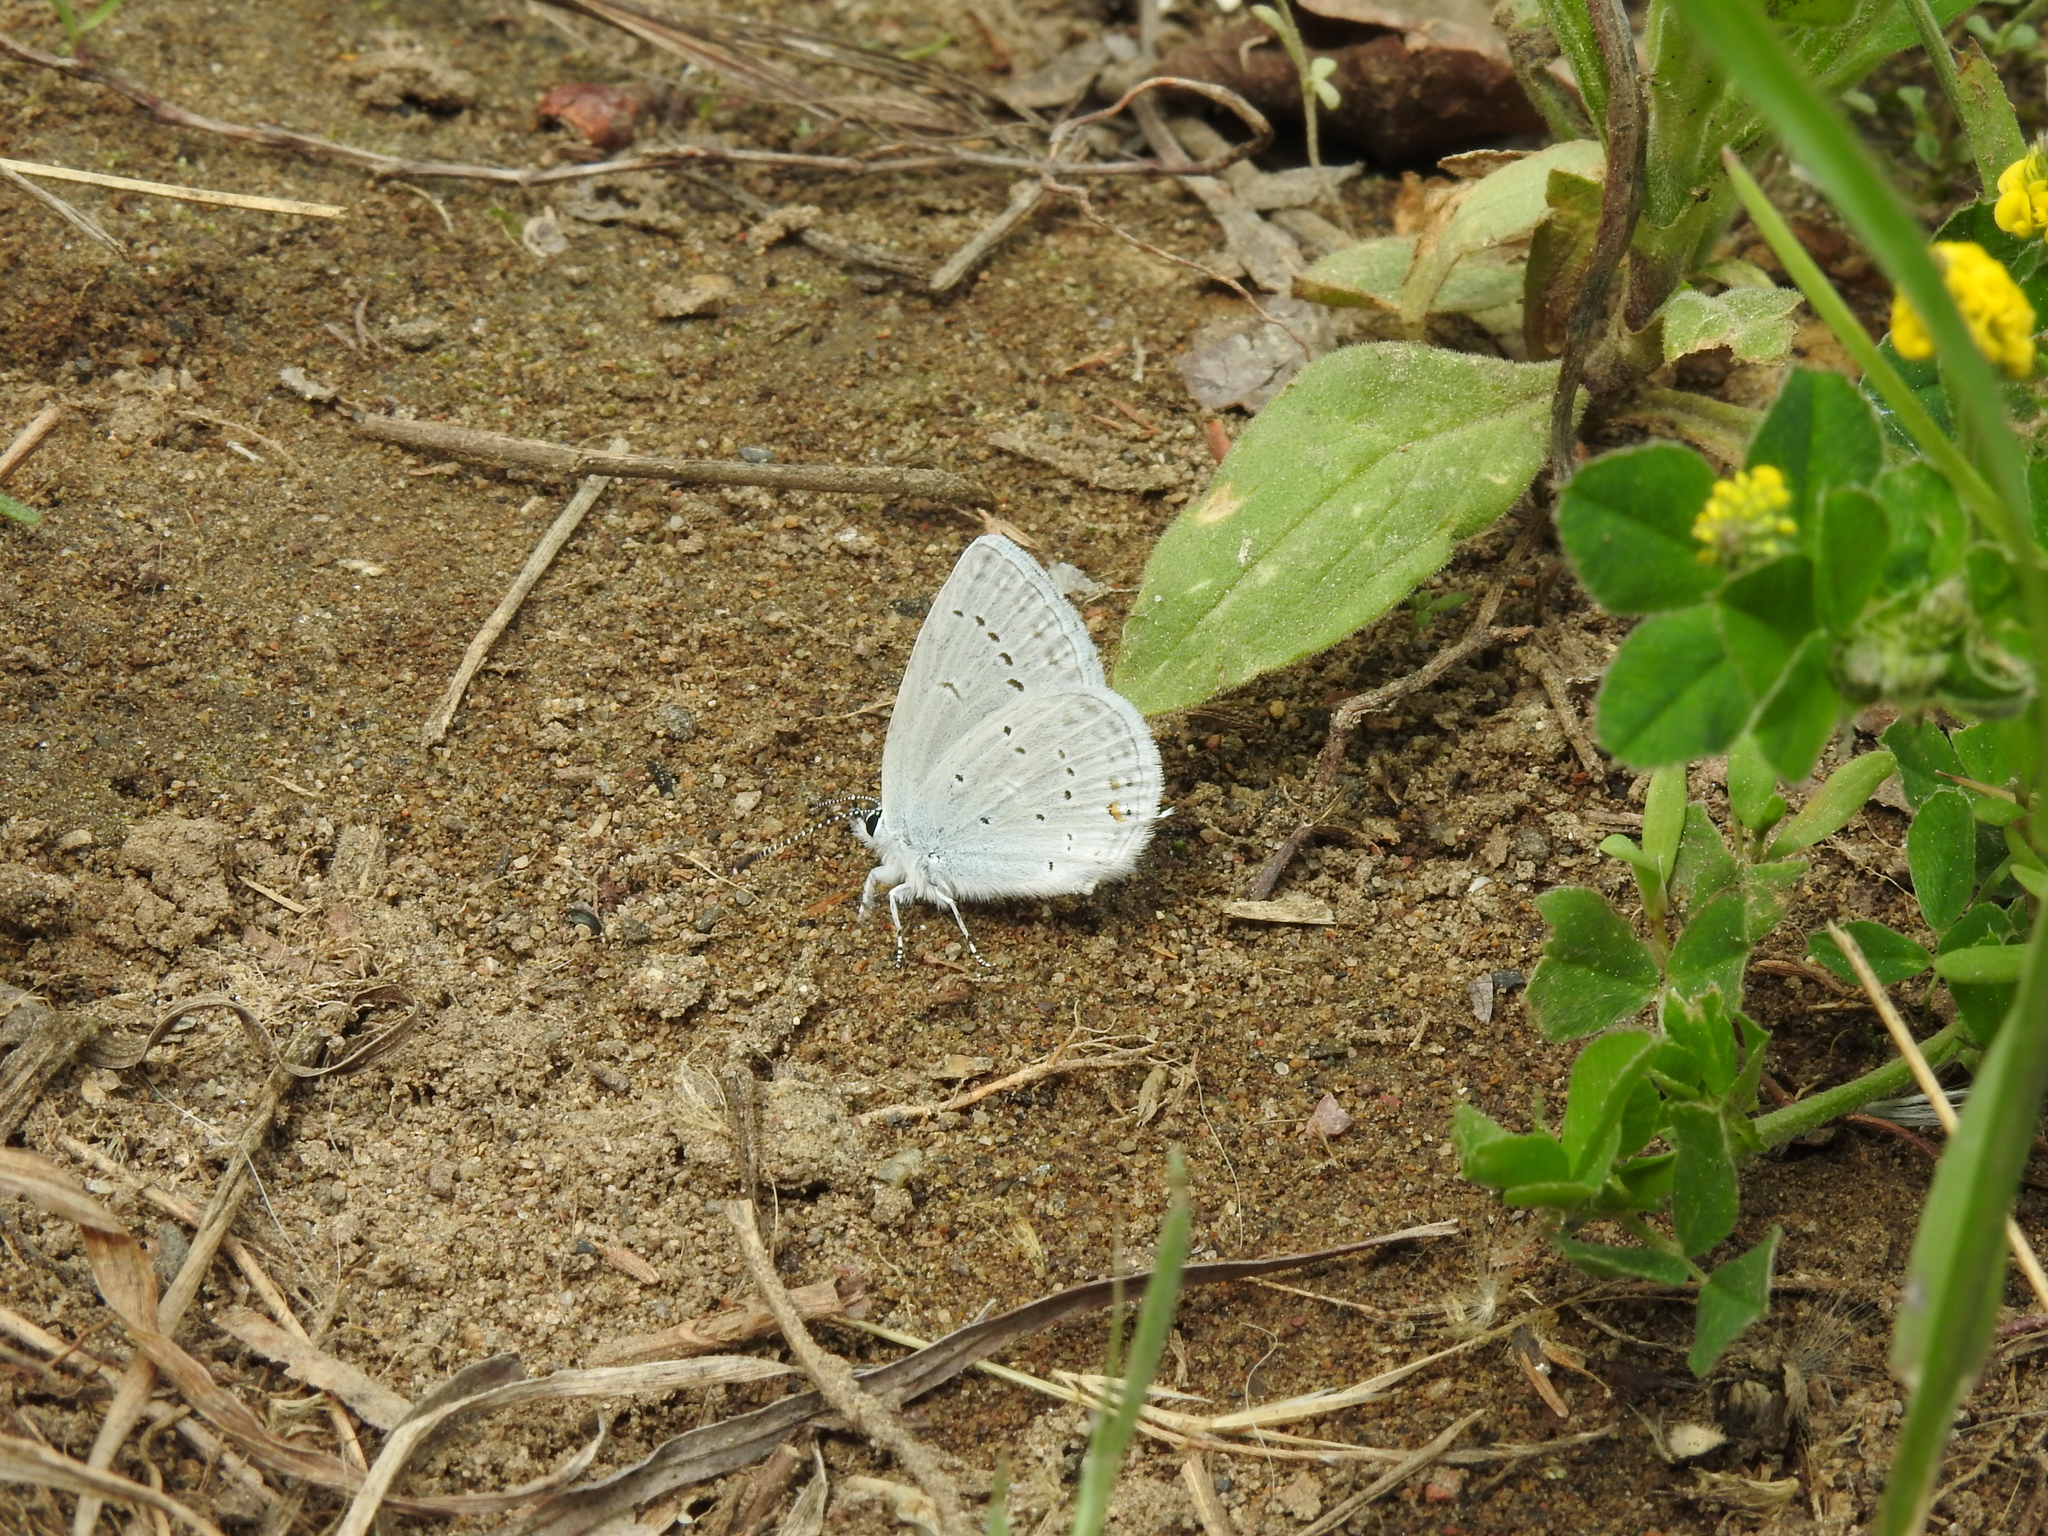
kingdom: Animalia
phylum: Arthropoda
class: Insecta
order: Lepidoptera
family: Lycaenidae
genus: Elkalyce
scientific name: Elkalyce amyntula
